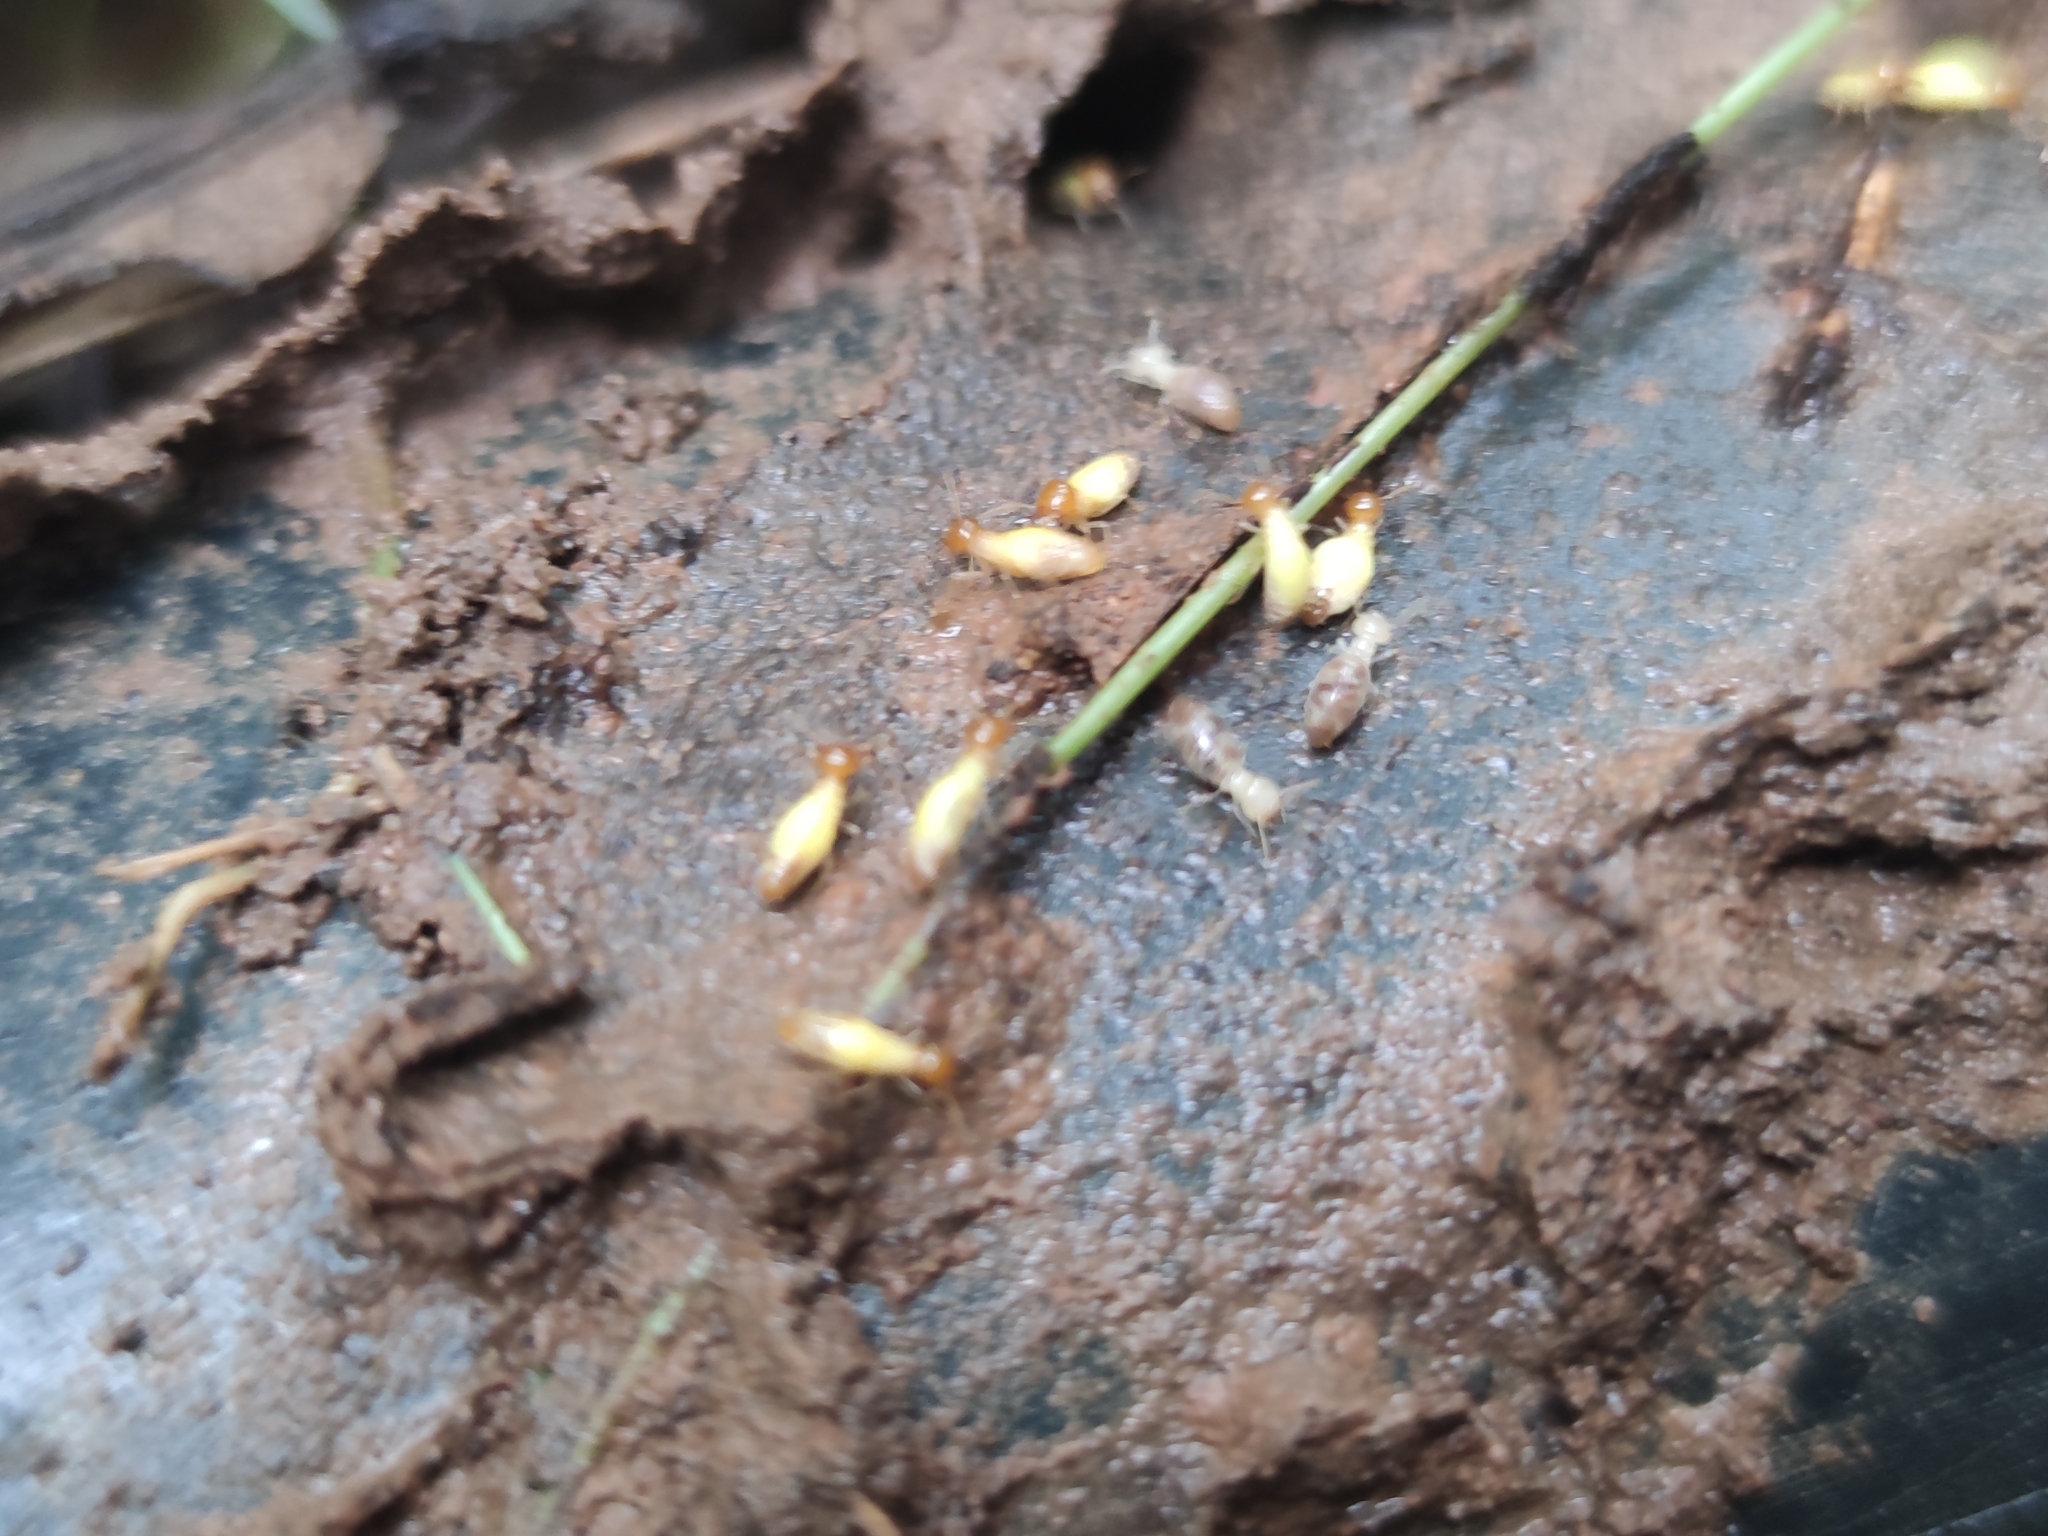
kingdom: Animalia
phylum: Arthropoda
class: Insecta
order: Blattodea
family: Termitidae
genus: Globitermes
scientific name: Globitermes sulphureus
